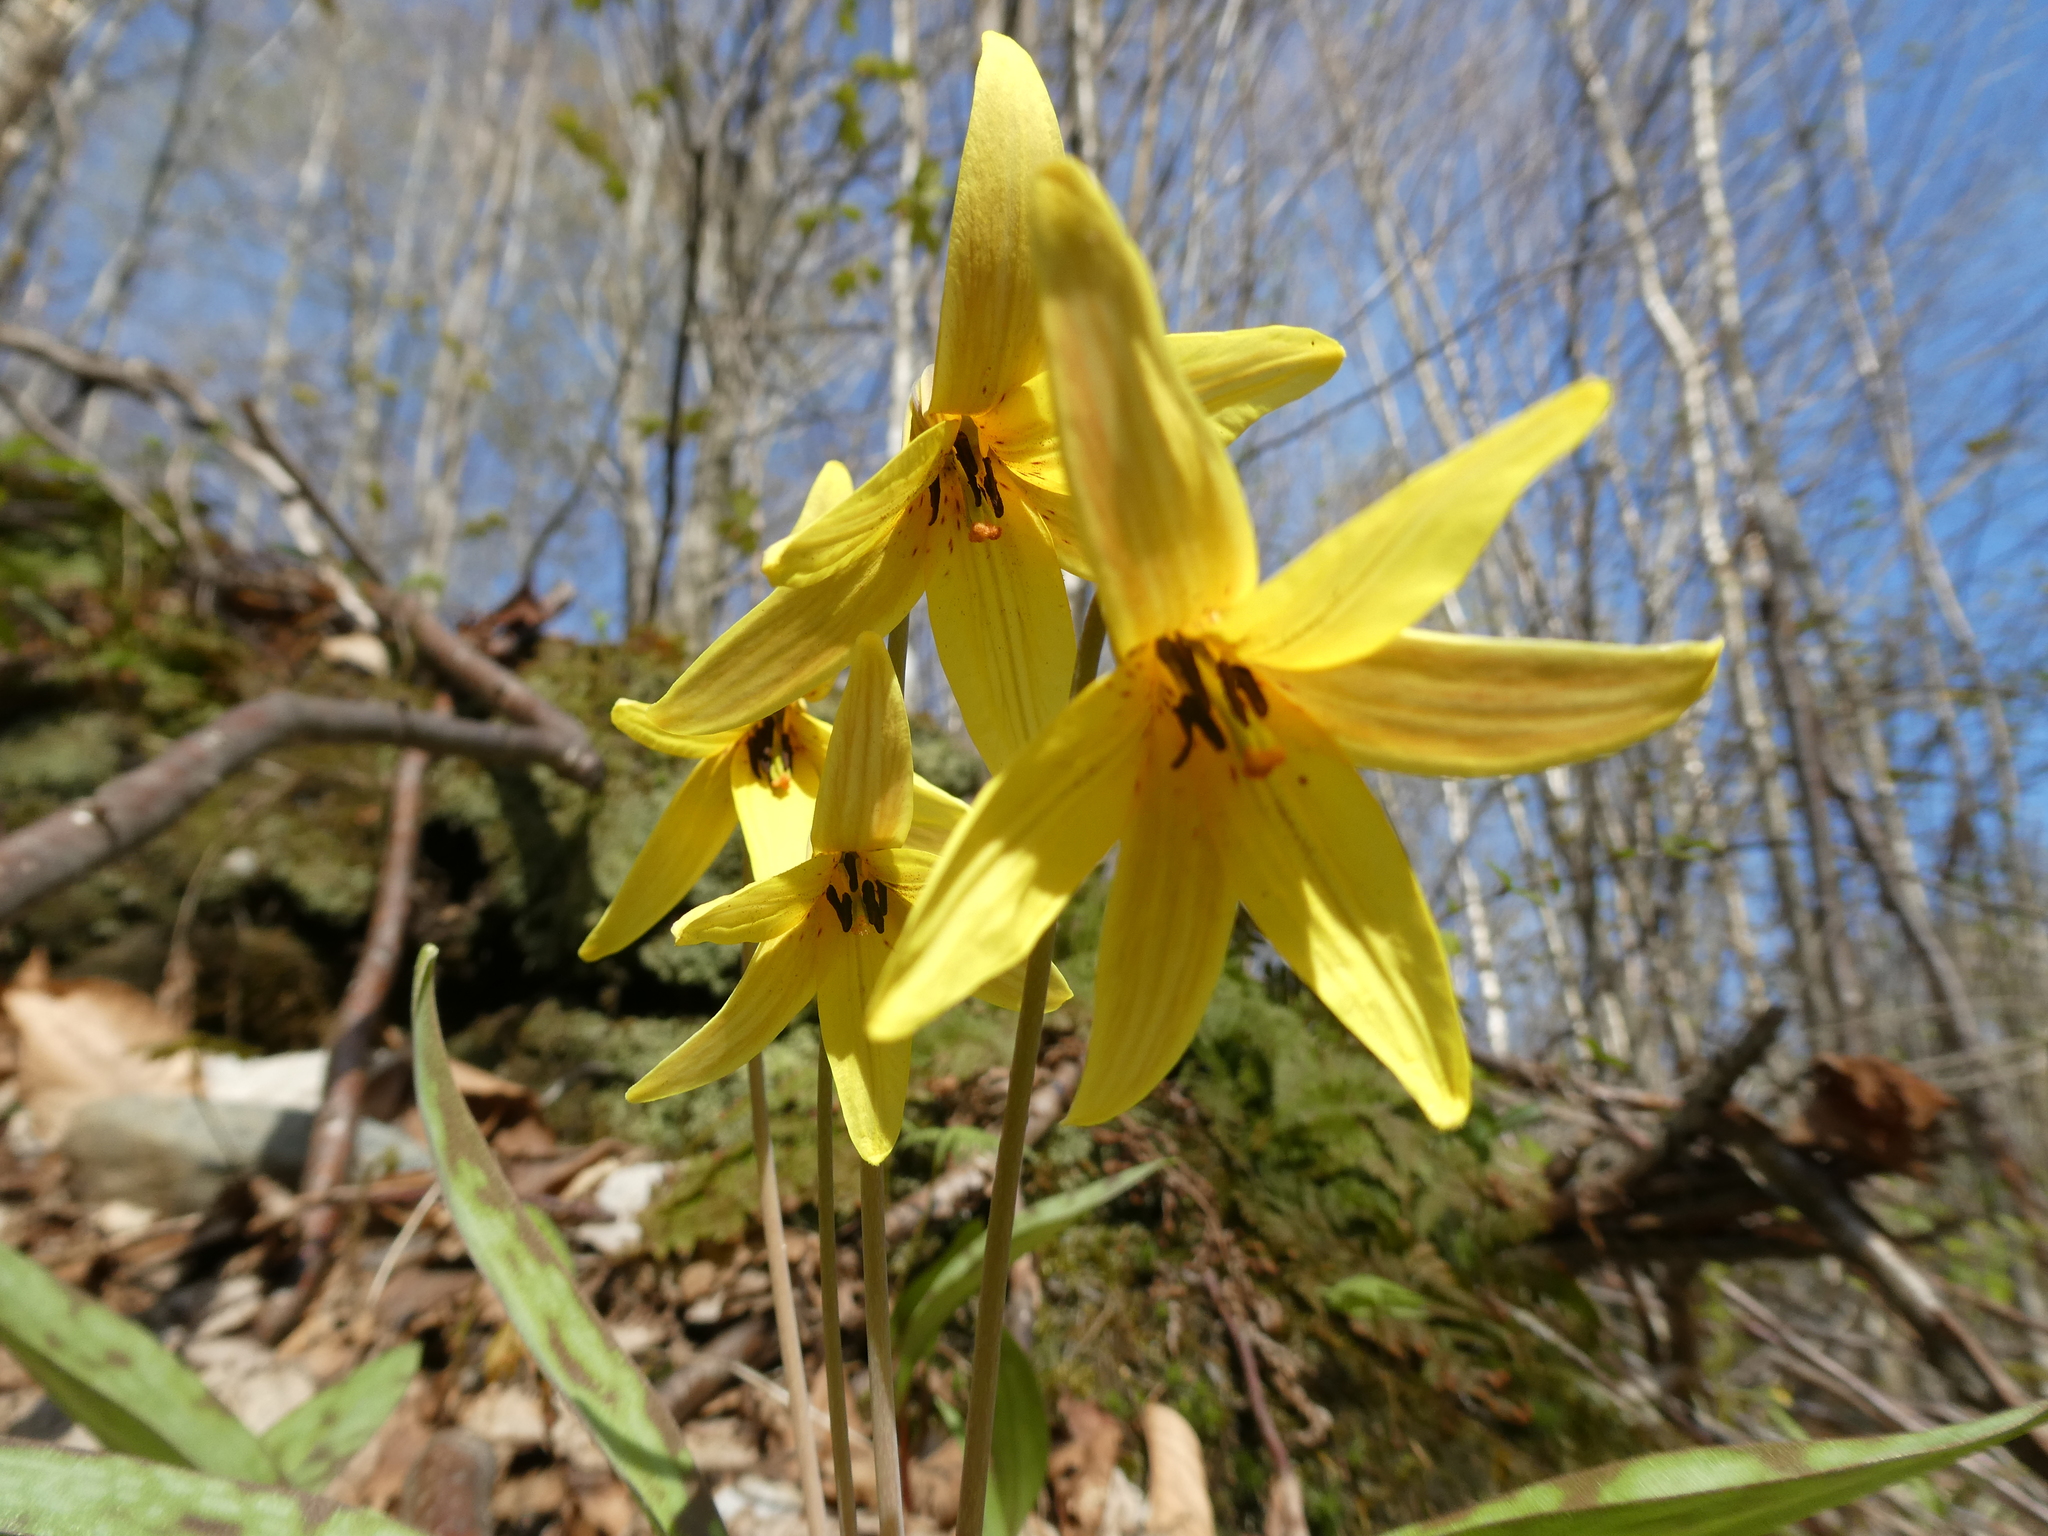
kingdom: Plantae
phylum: Tracheophyta
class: Liliopsida
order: Liliales
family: Liliaceae
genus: Erythronium
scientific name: Erythronium americanum
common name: Yellow adder's-tongue
